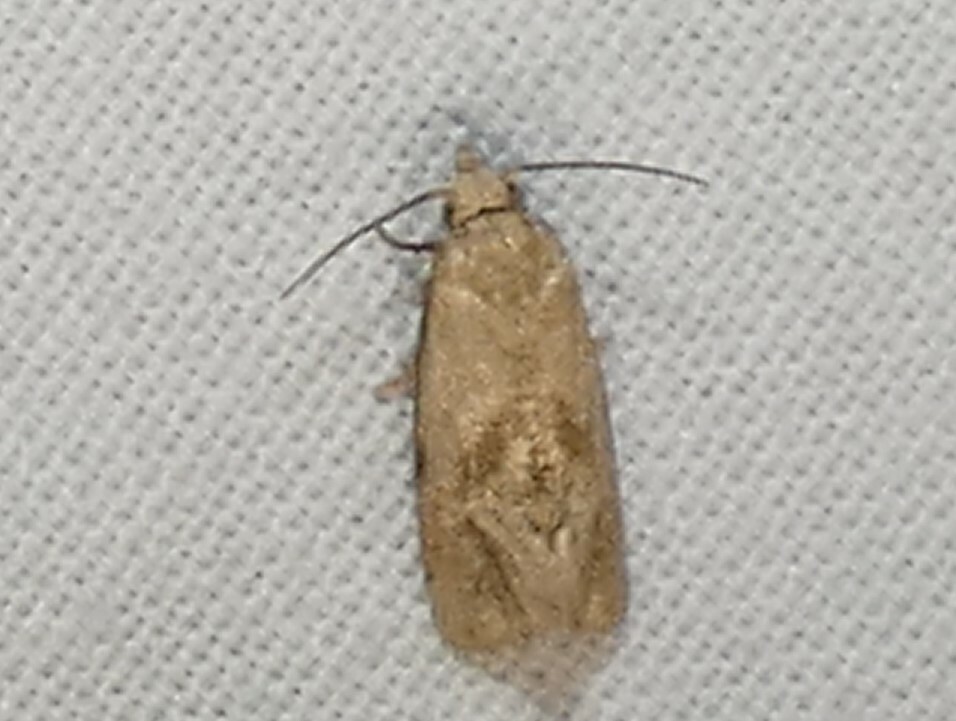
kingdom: Animalia
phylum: Arthropoda
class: Insecta
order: Lepidoptera
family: Tortricidae
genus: Phalonidia
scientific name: Phalonidia Platphalonidia magdalenae
